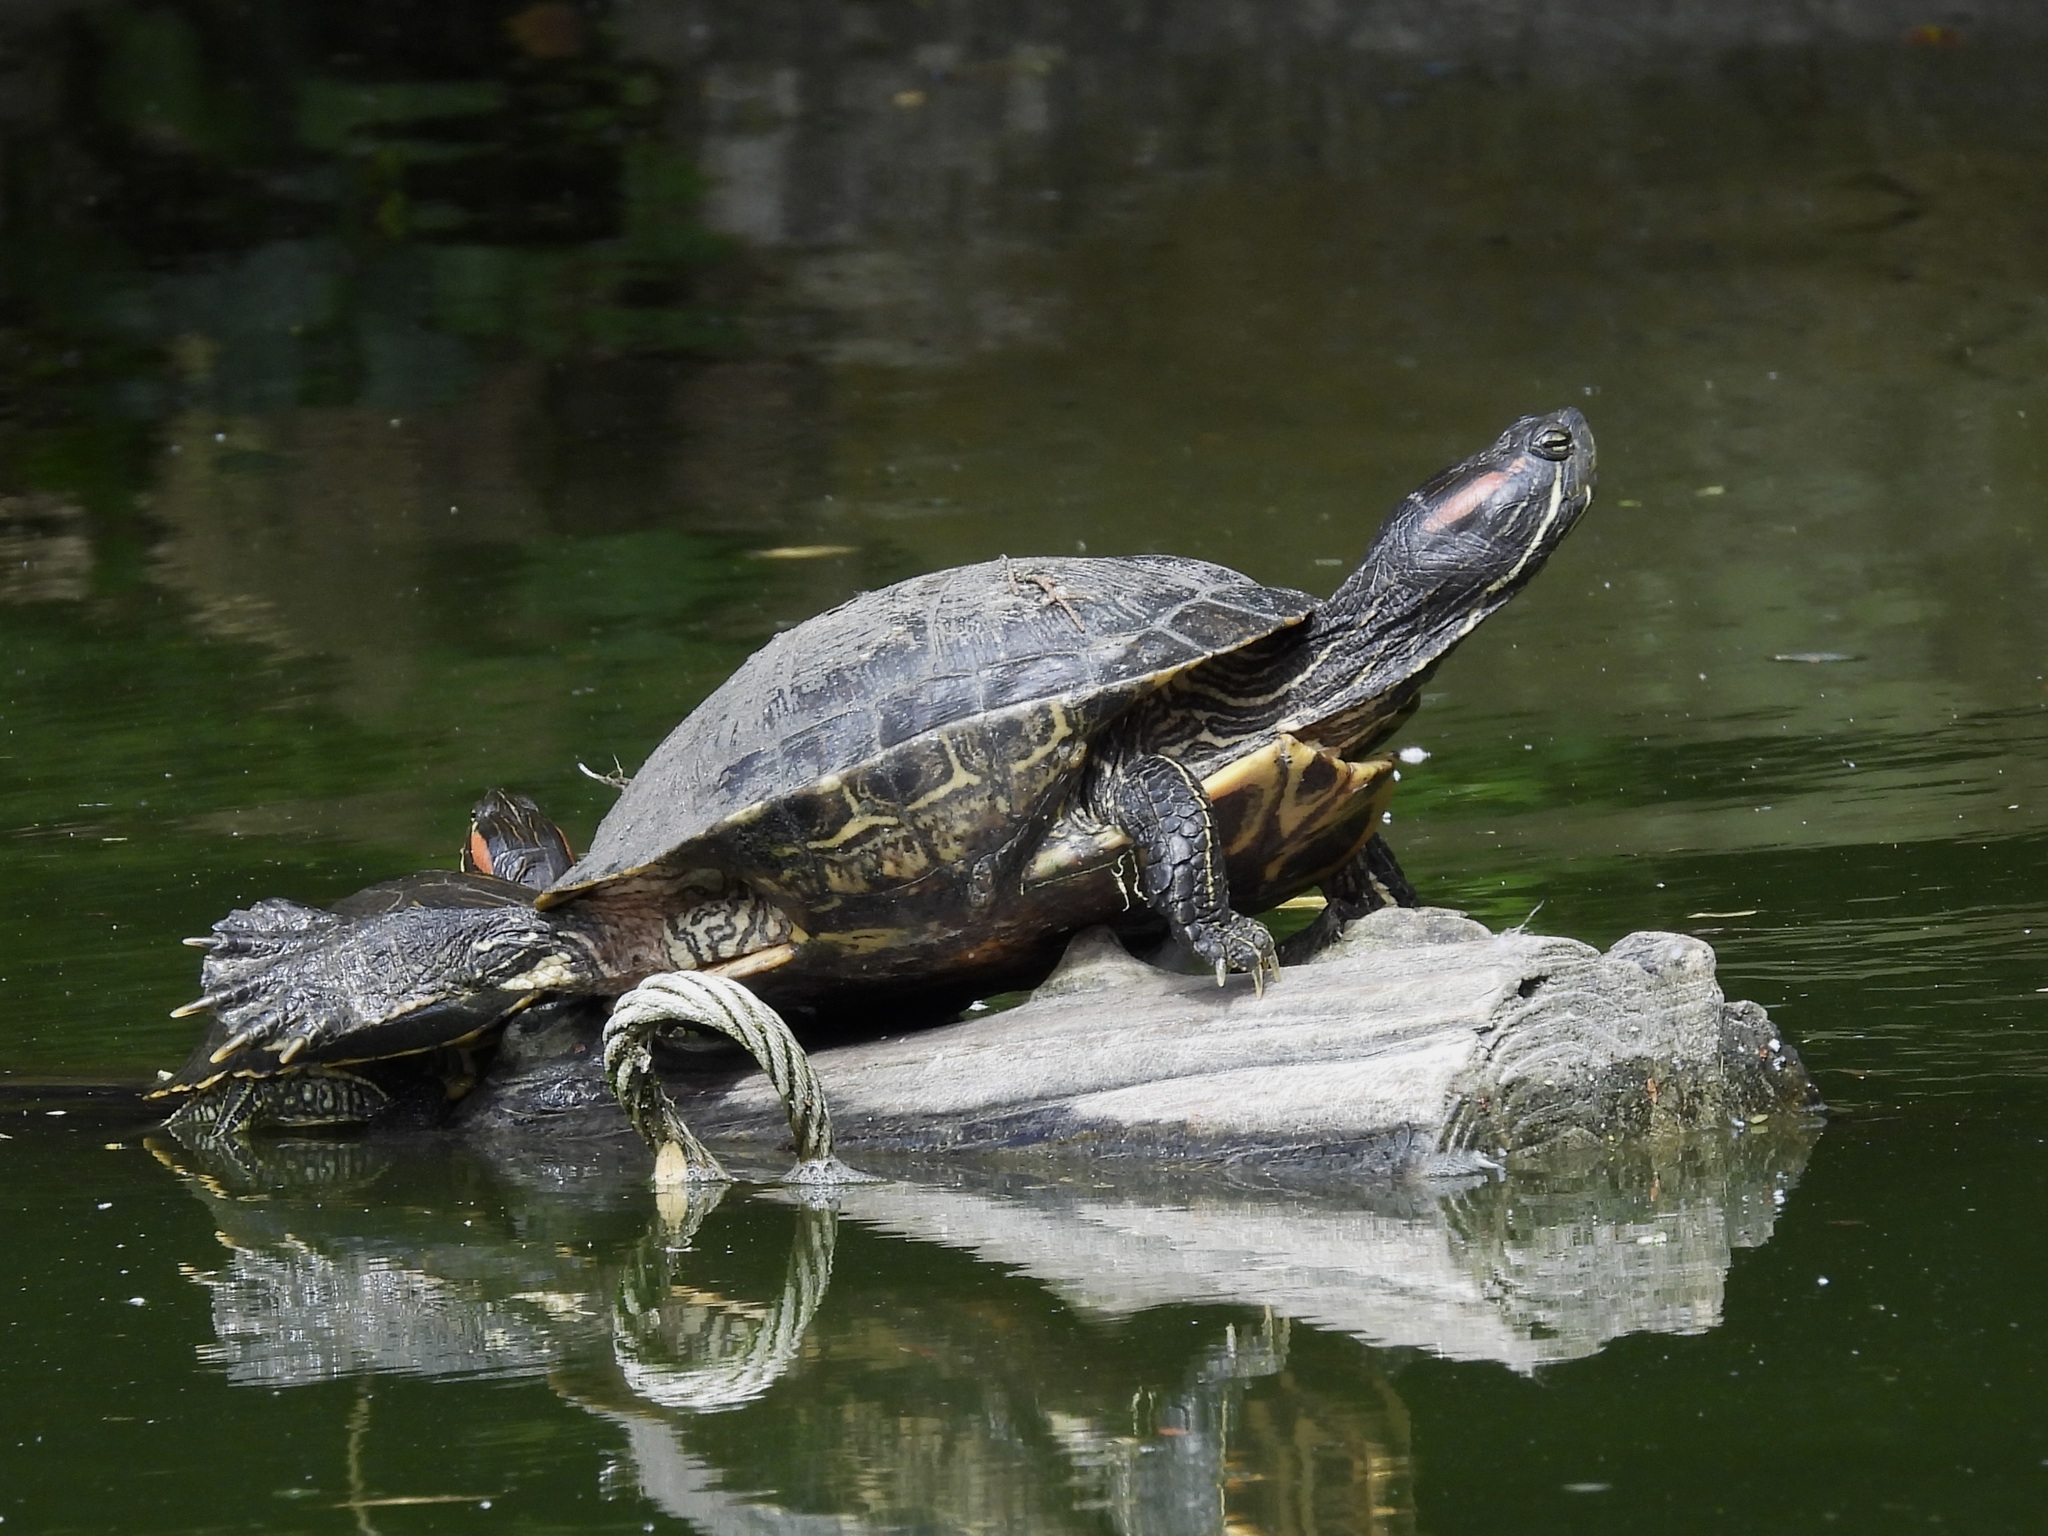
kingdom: Animalia
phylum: Chordata
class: Testudines
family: Emydidae
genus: Trachemys
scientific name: Trachemys scripta
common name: Slider
